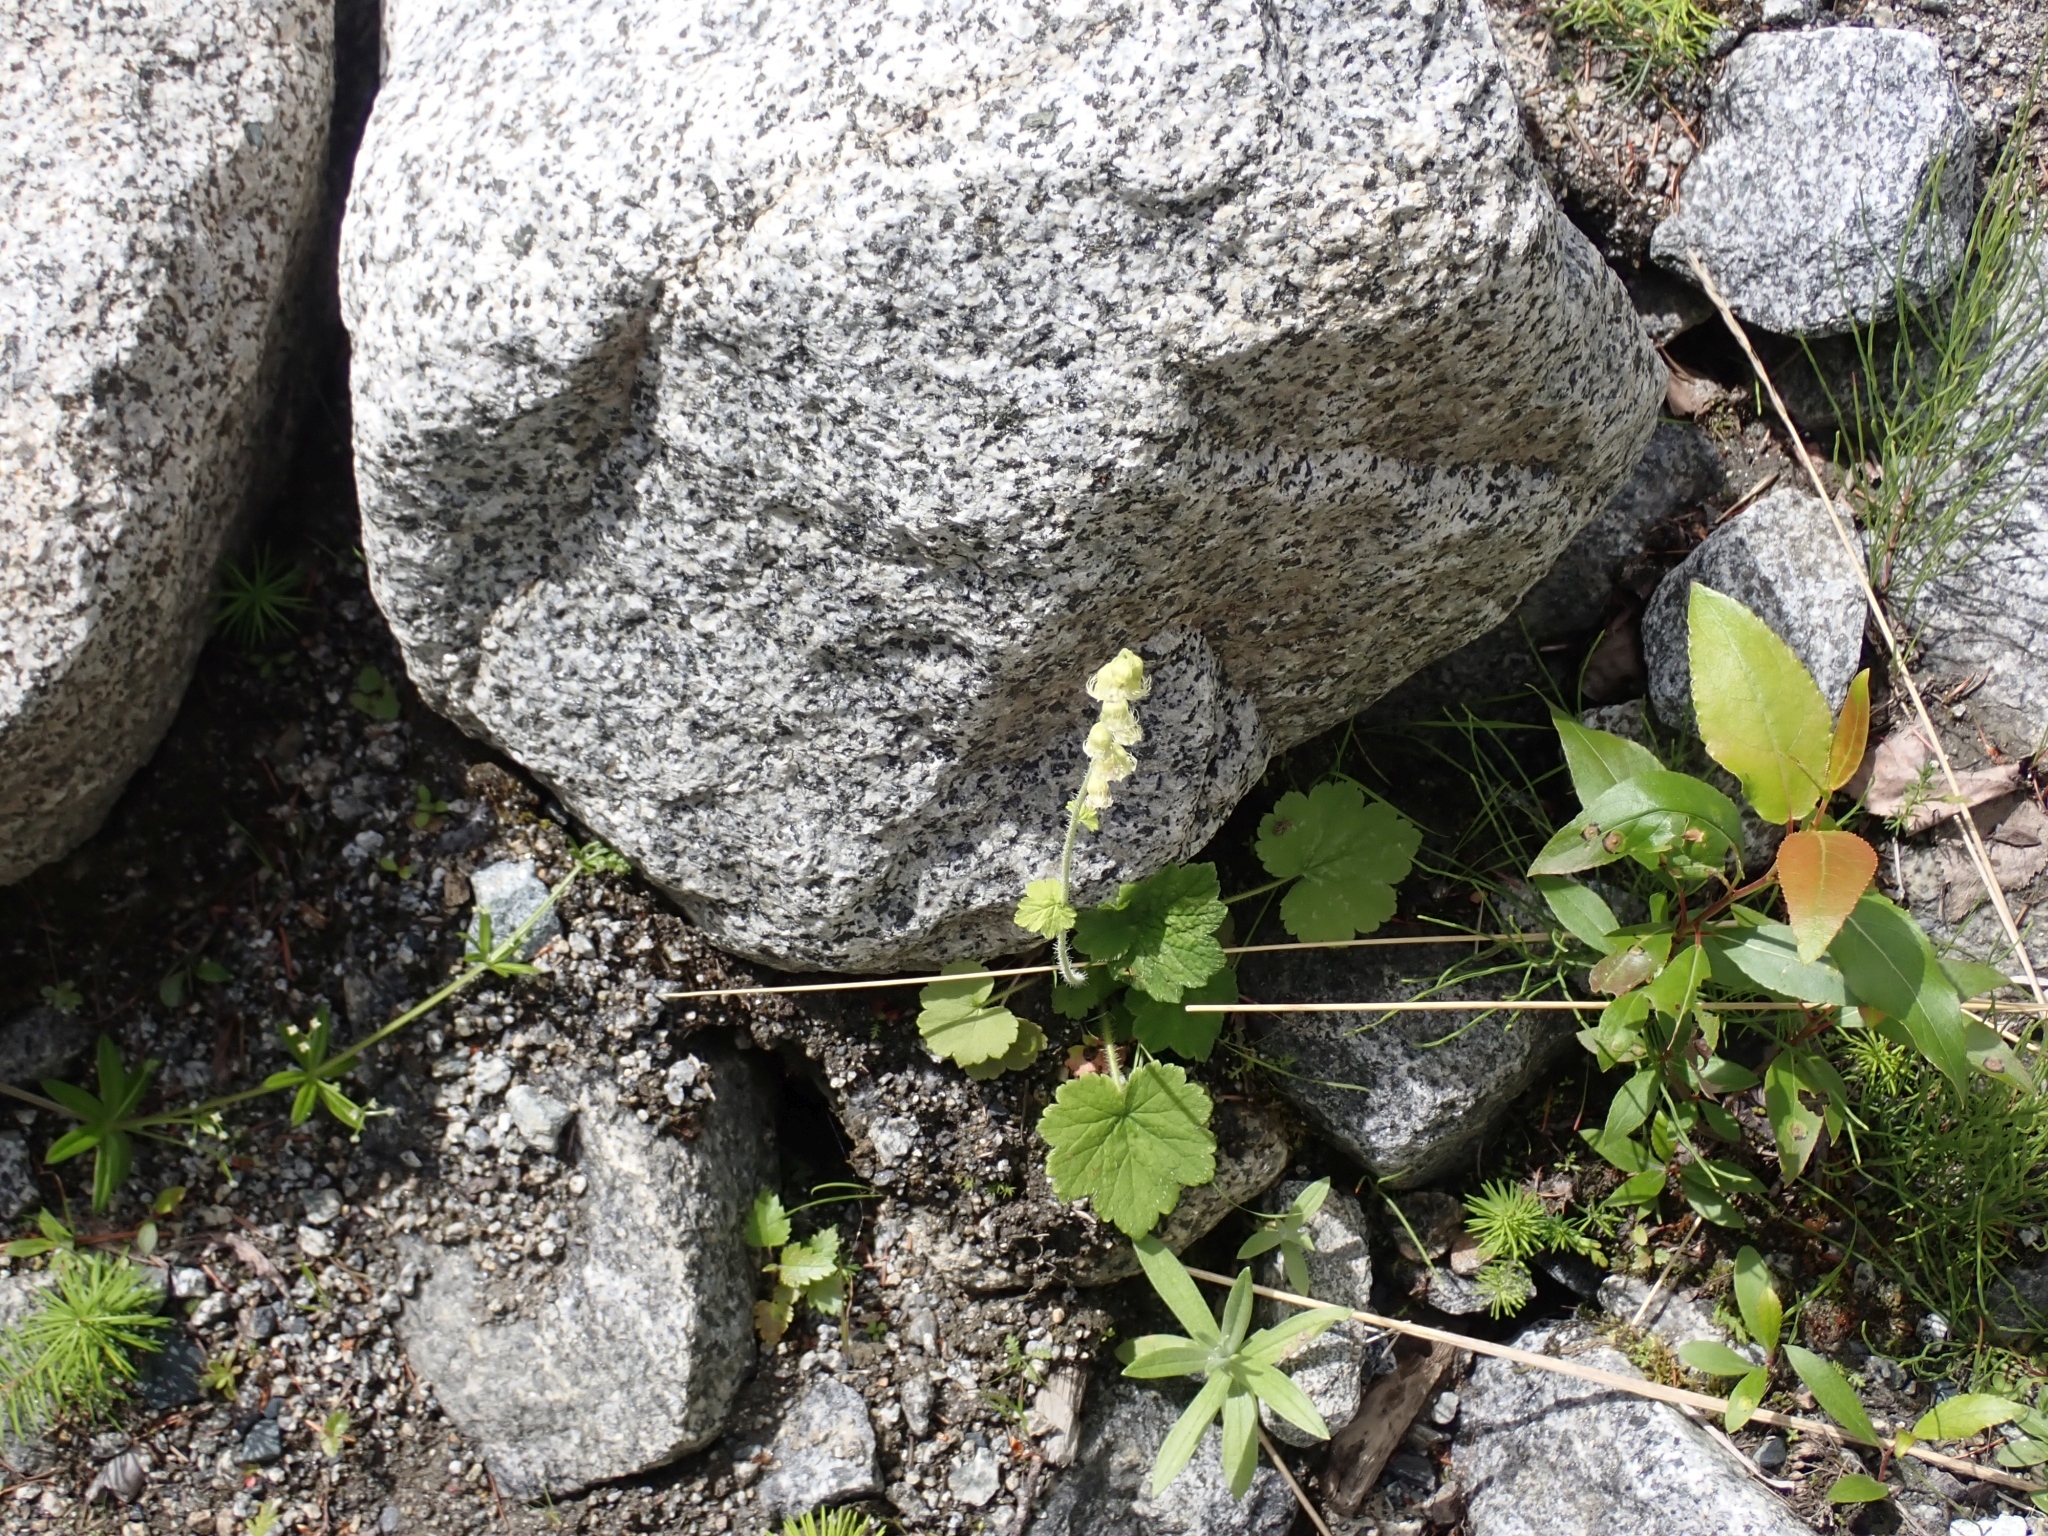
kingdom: Plantae
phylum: Tracheophyta
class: Magnoliopsida
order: Saxifragales
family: Saxifragaceae
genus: Tellima
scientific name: Tellima grandiflora
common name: Fringecups
